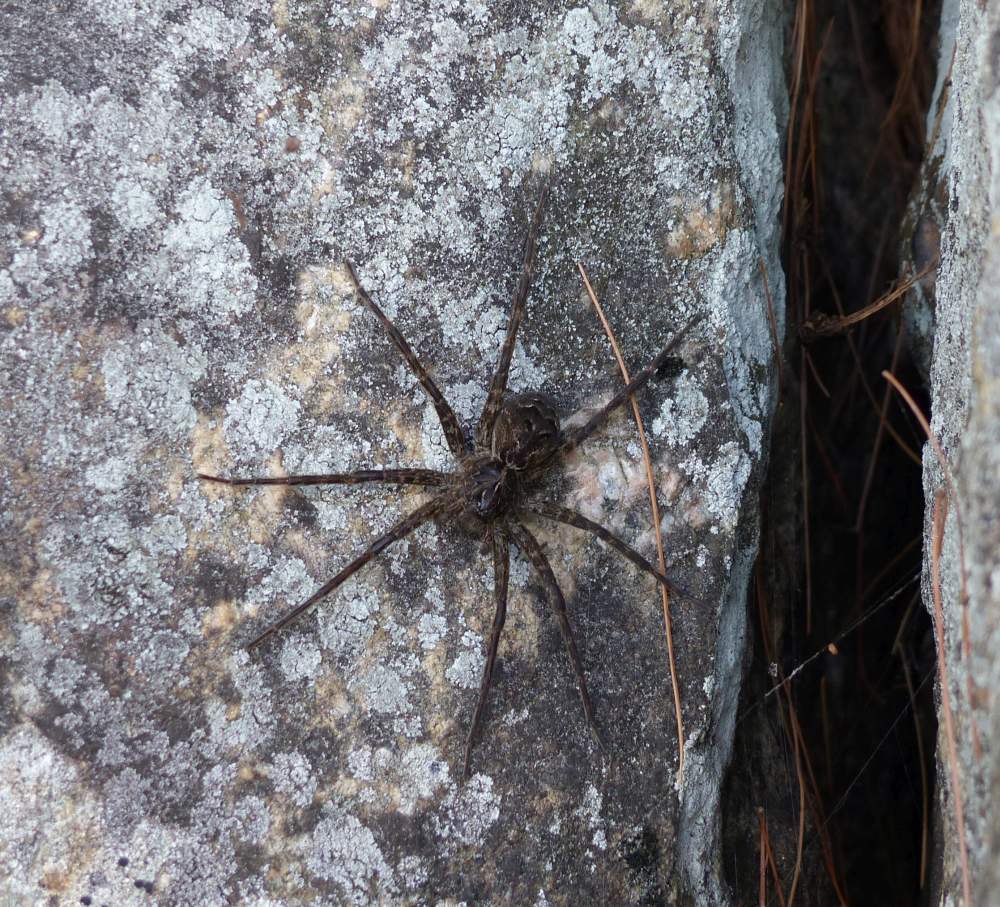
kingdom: Animalia
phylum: Arthropoda
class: Arachnida
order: Araneae
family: Pisauridae
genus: Dolomedes
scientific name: Dolomedes scriptus
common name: Striped fishing spider
